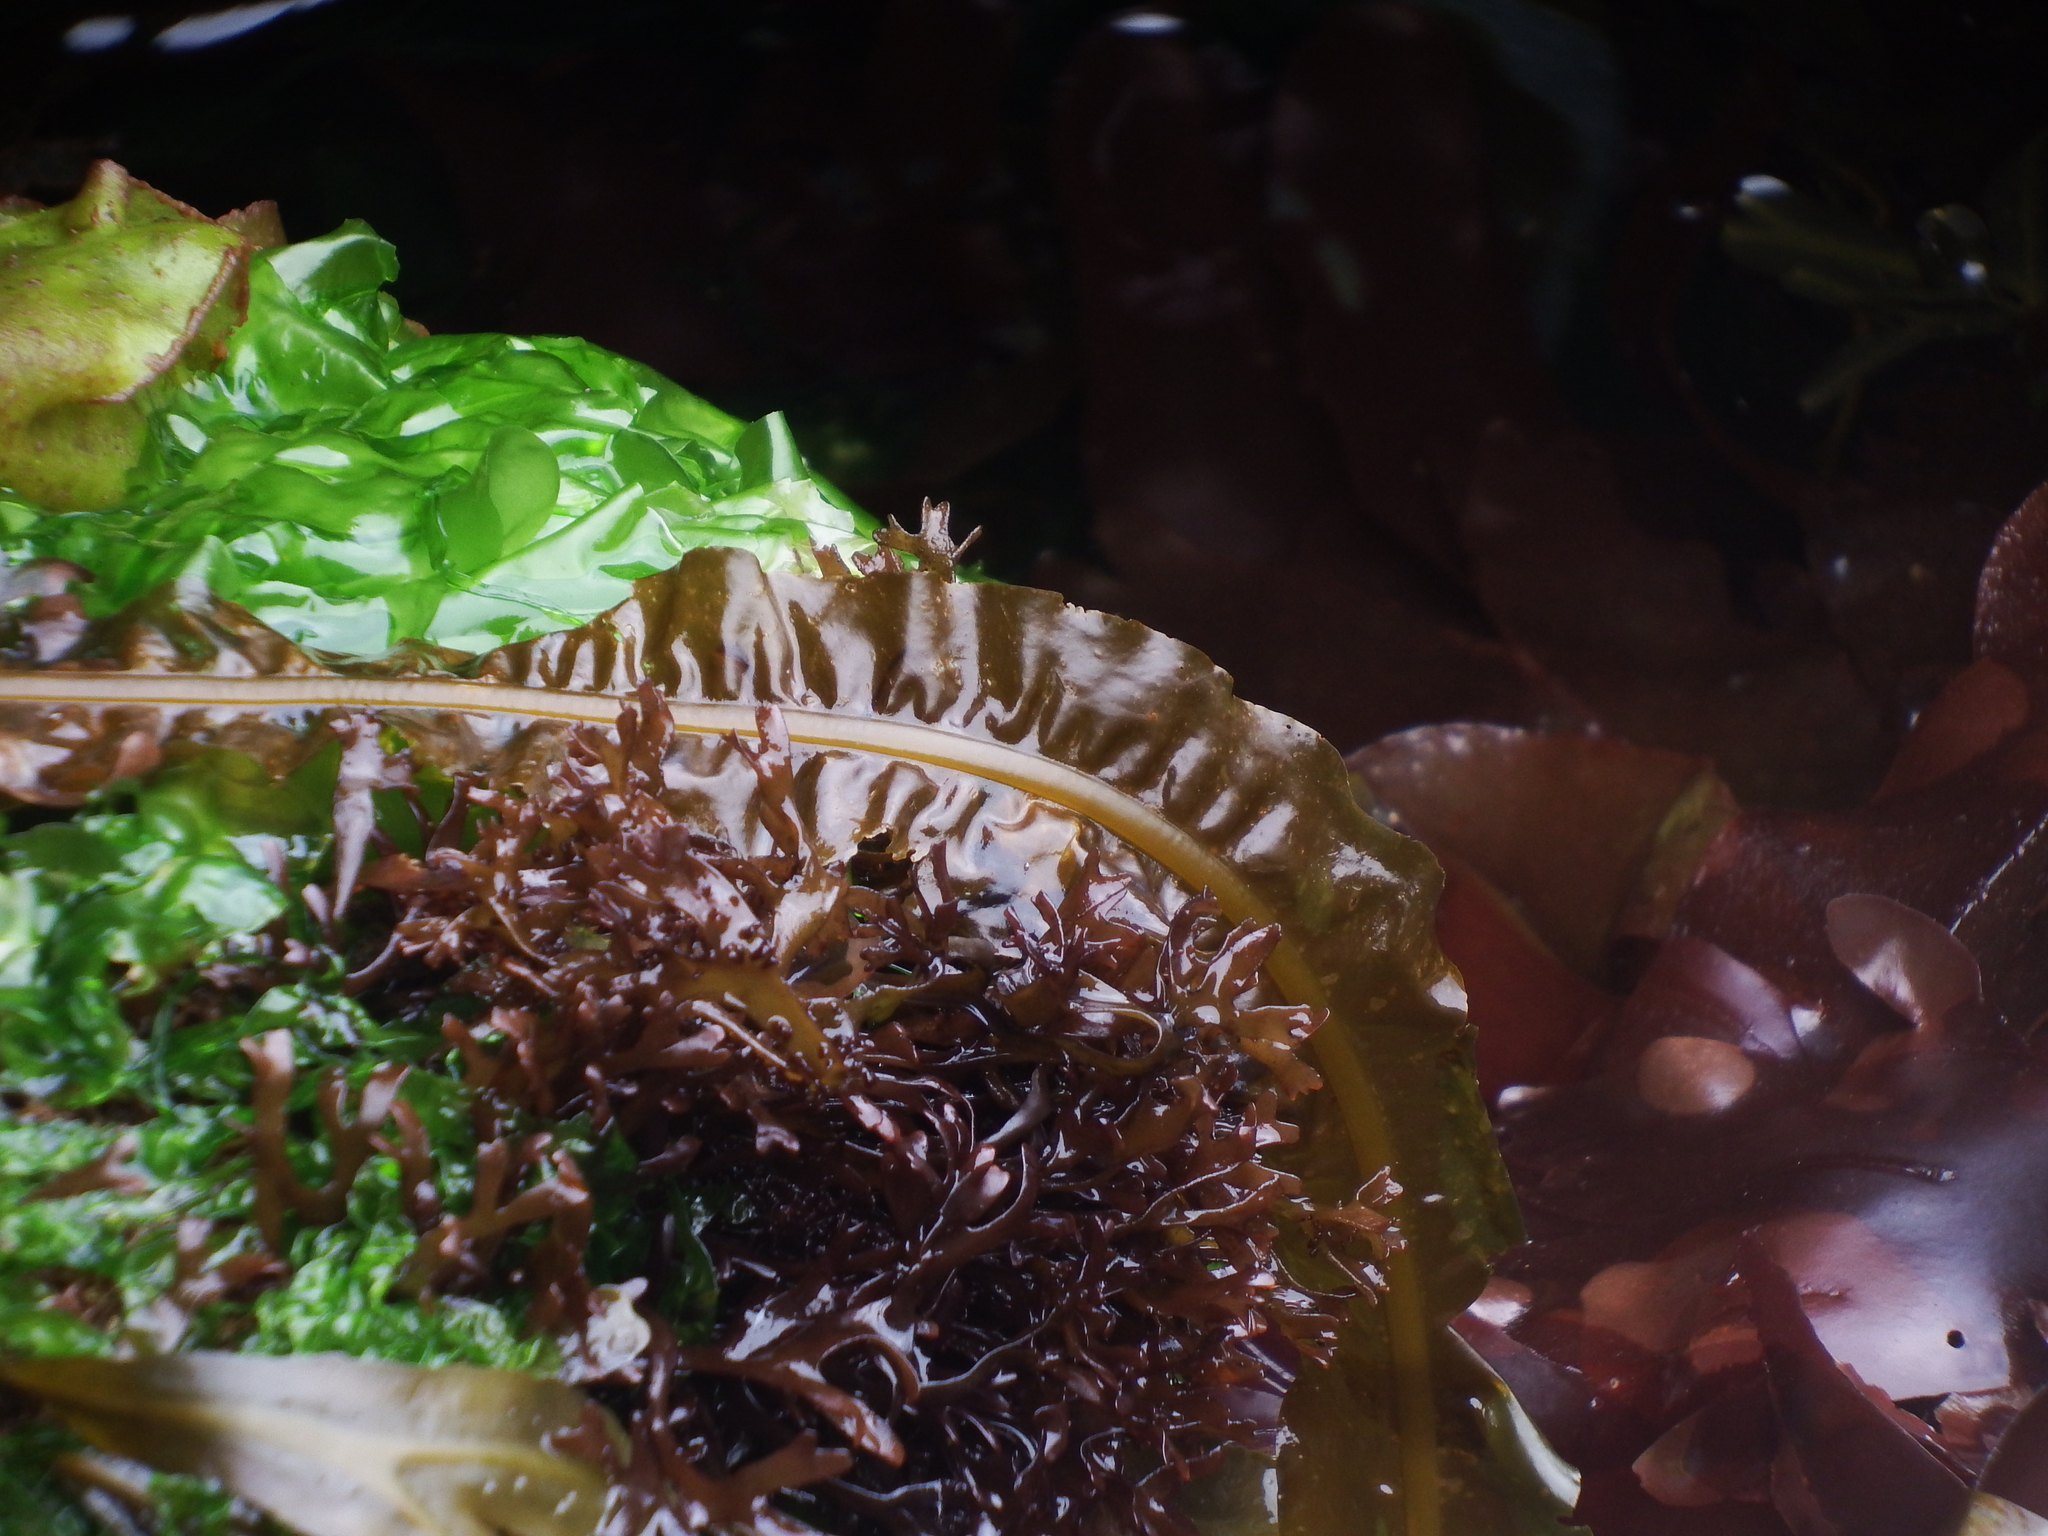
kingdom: Chromista
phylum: Ochrophyta
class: Phaeophyceae
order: Laminariales
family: Alariaceae
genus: Alaria
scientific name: Alaria esculenta
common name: Dabberlocks
